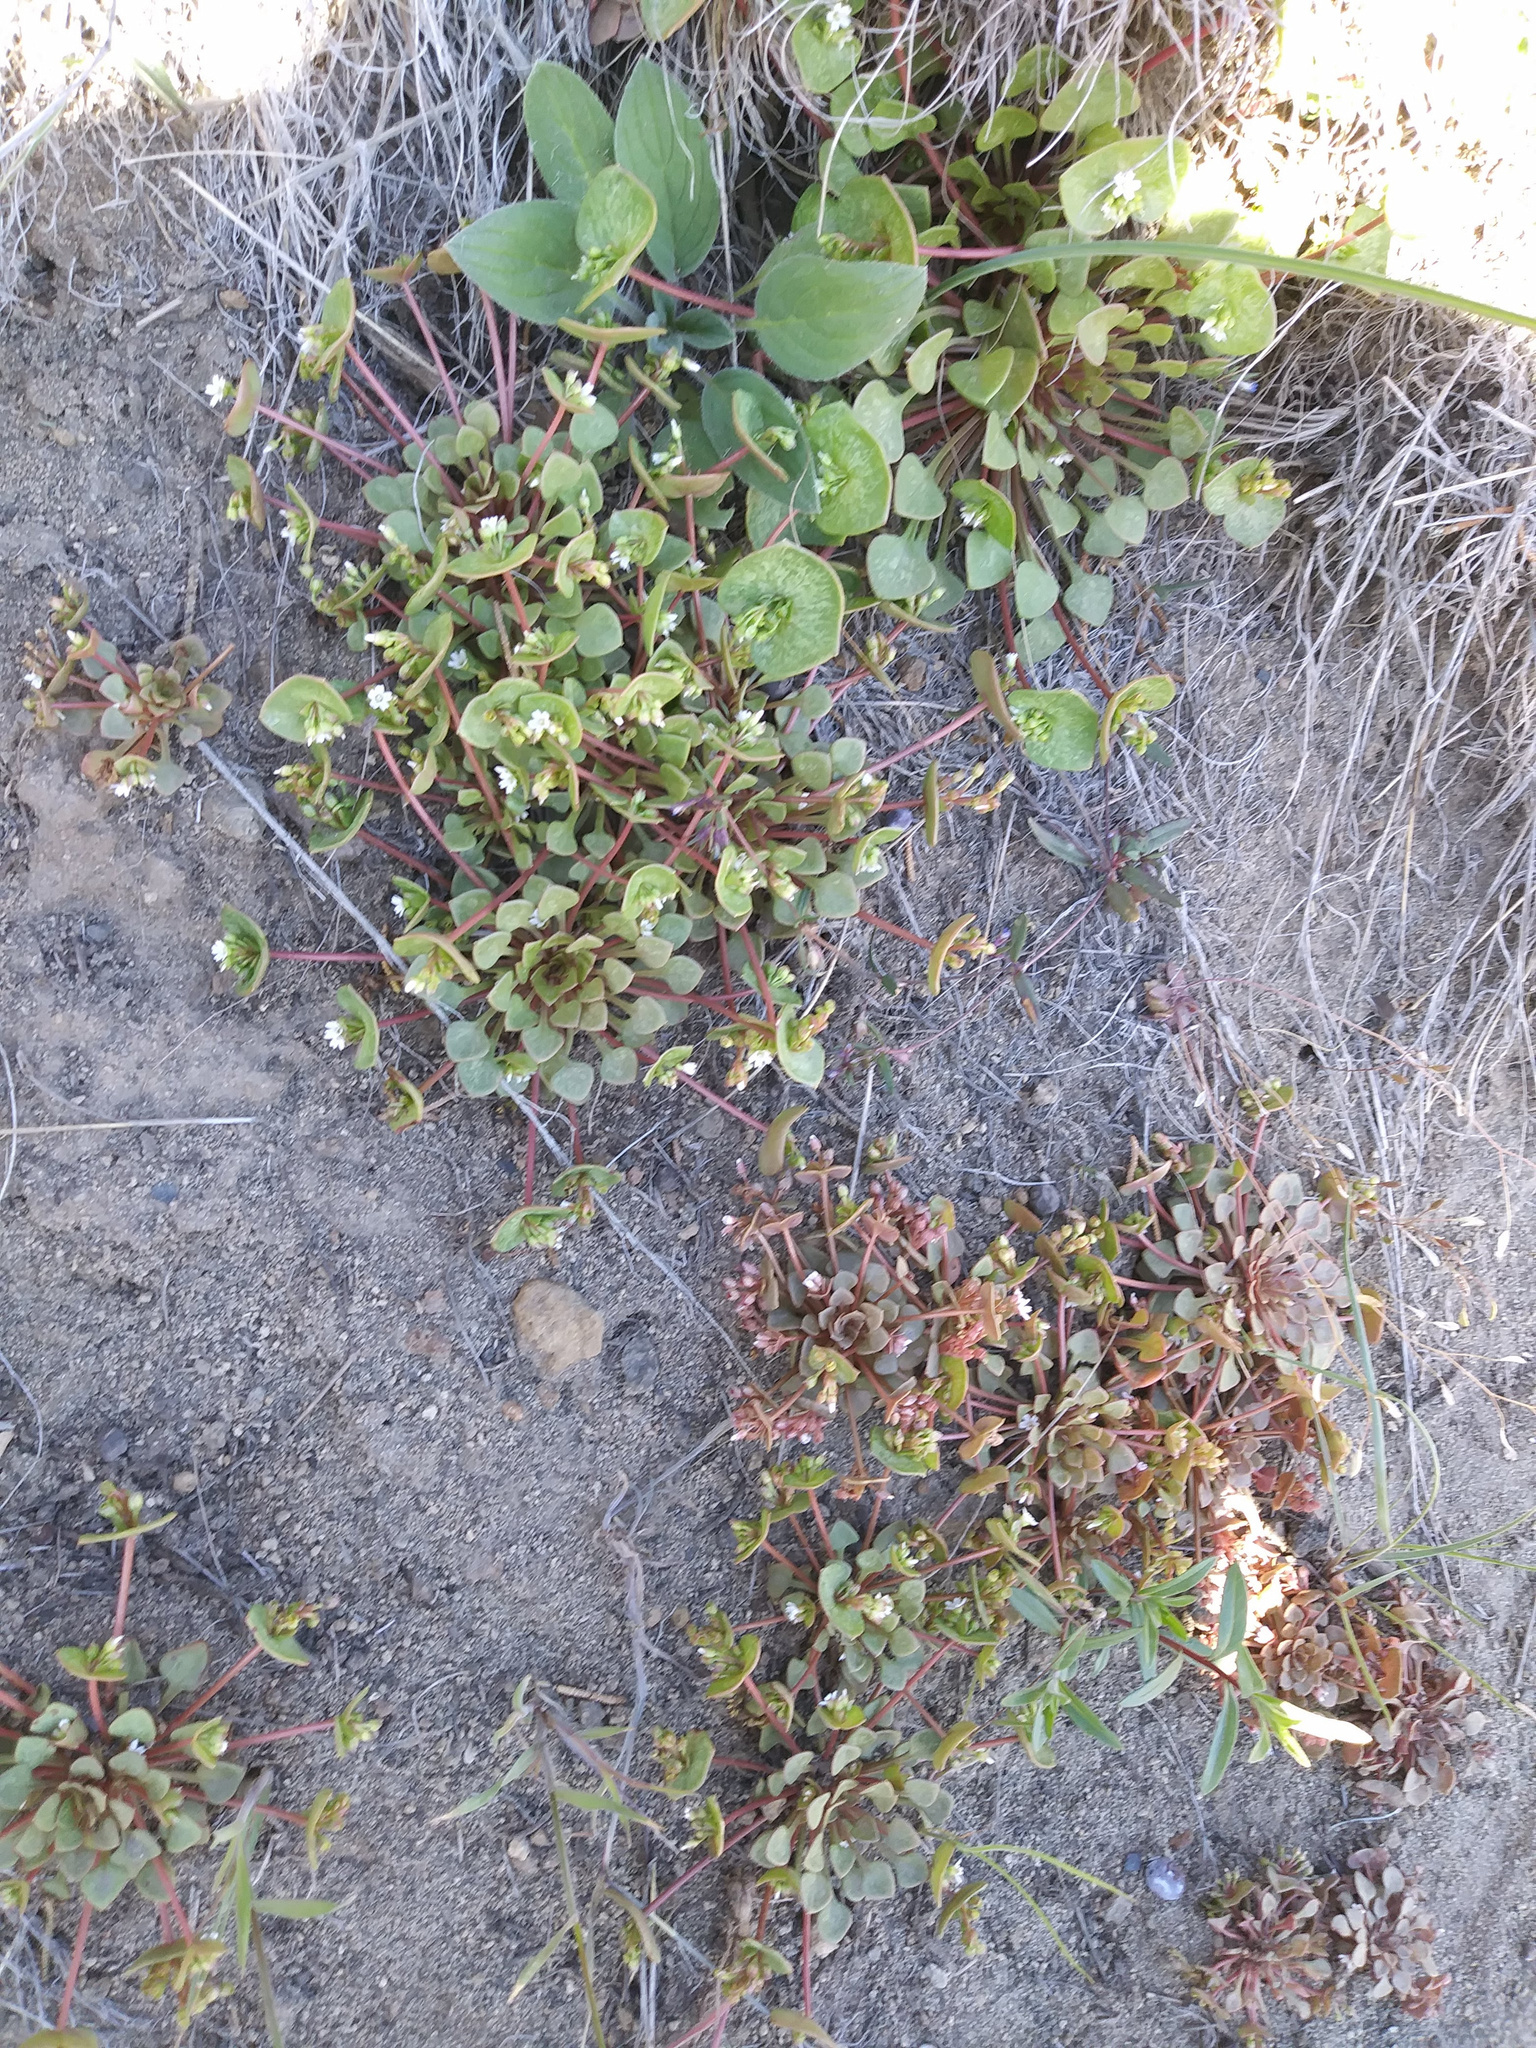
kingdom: Plantae
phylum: Tracheophyta
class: Magnoliopsida
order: Caryophyllales
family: Montiaceae
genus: Claytonia
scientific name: Claytonia rubra
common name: Erubescent miner's-lettuce
